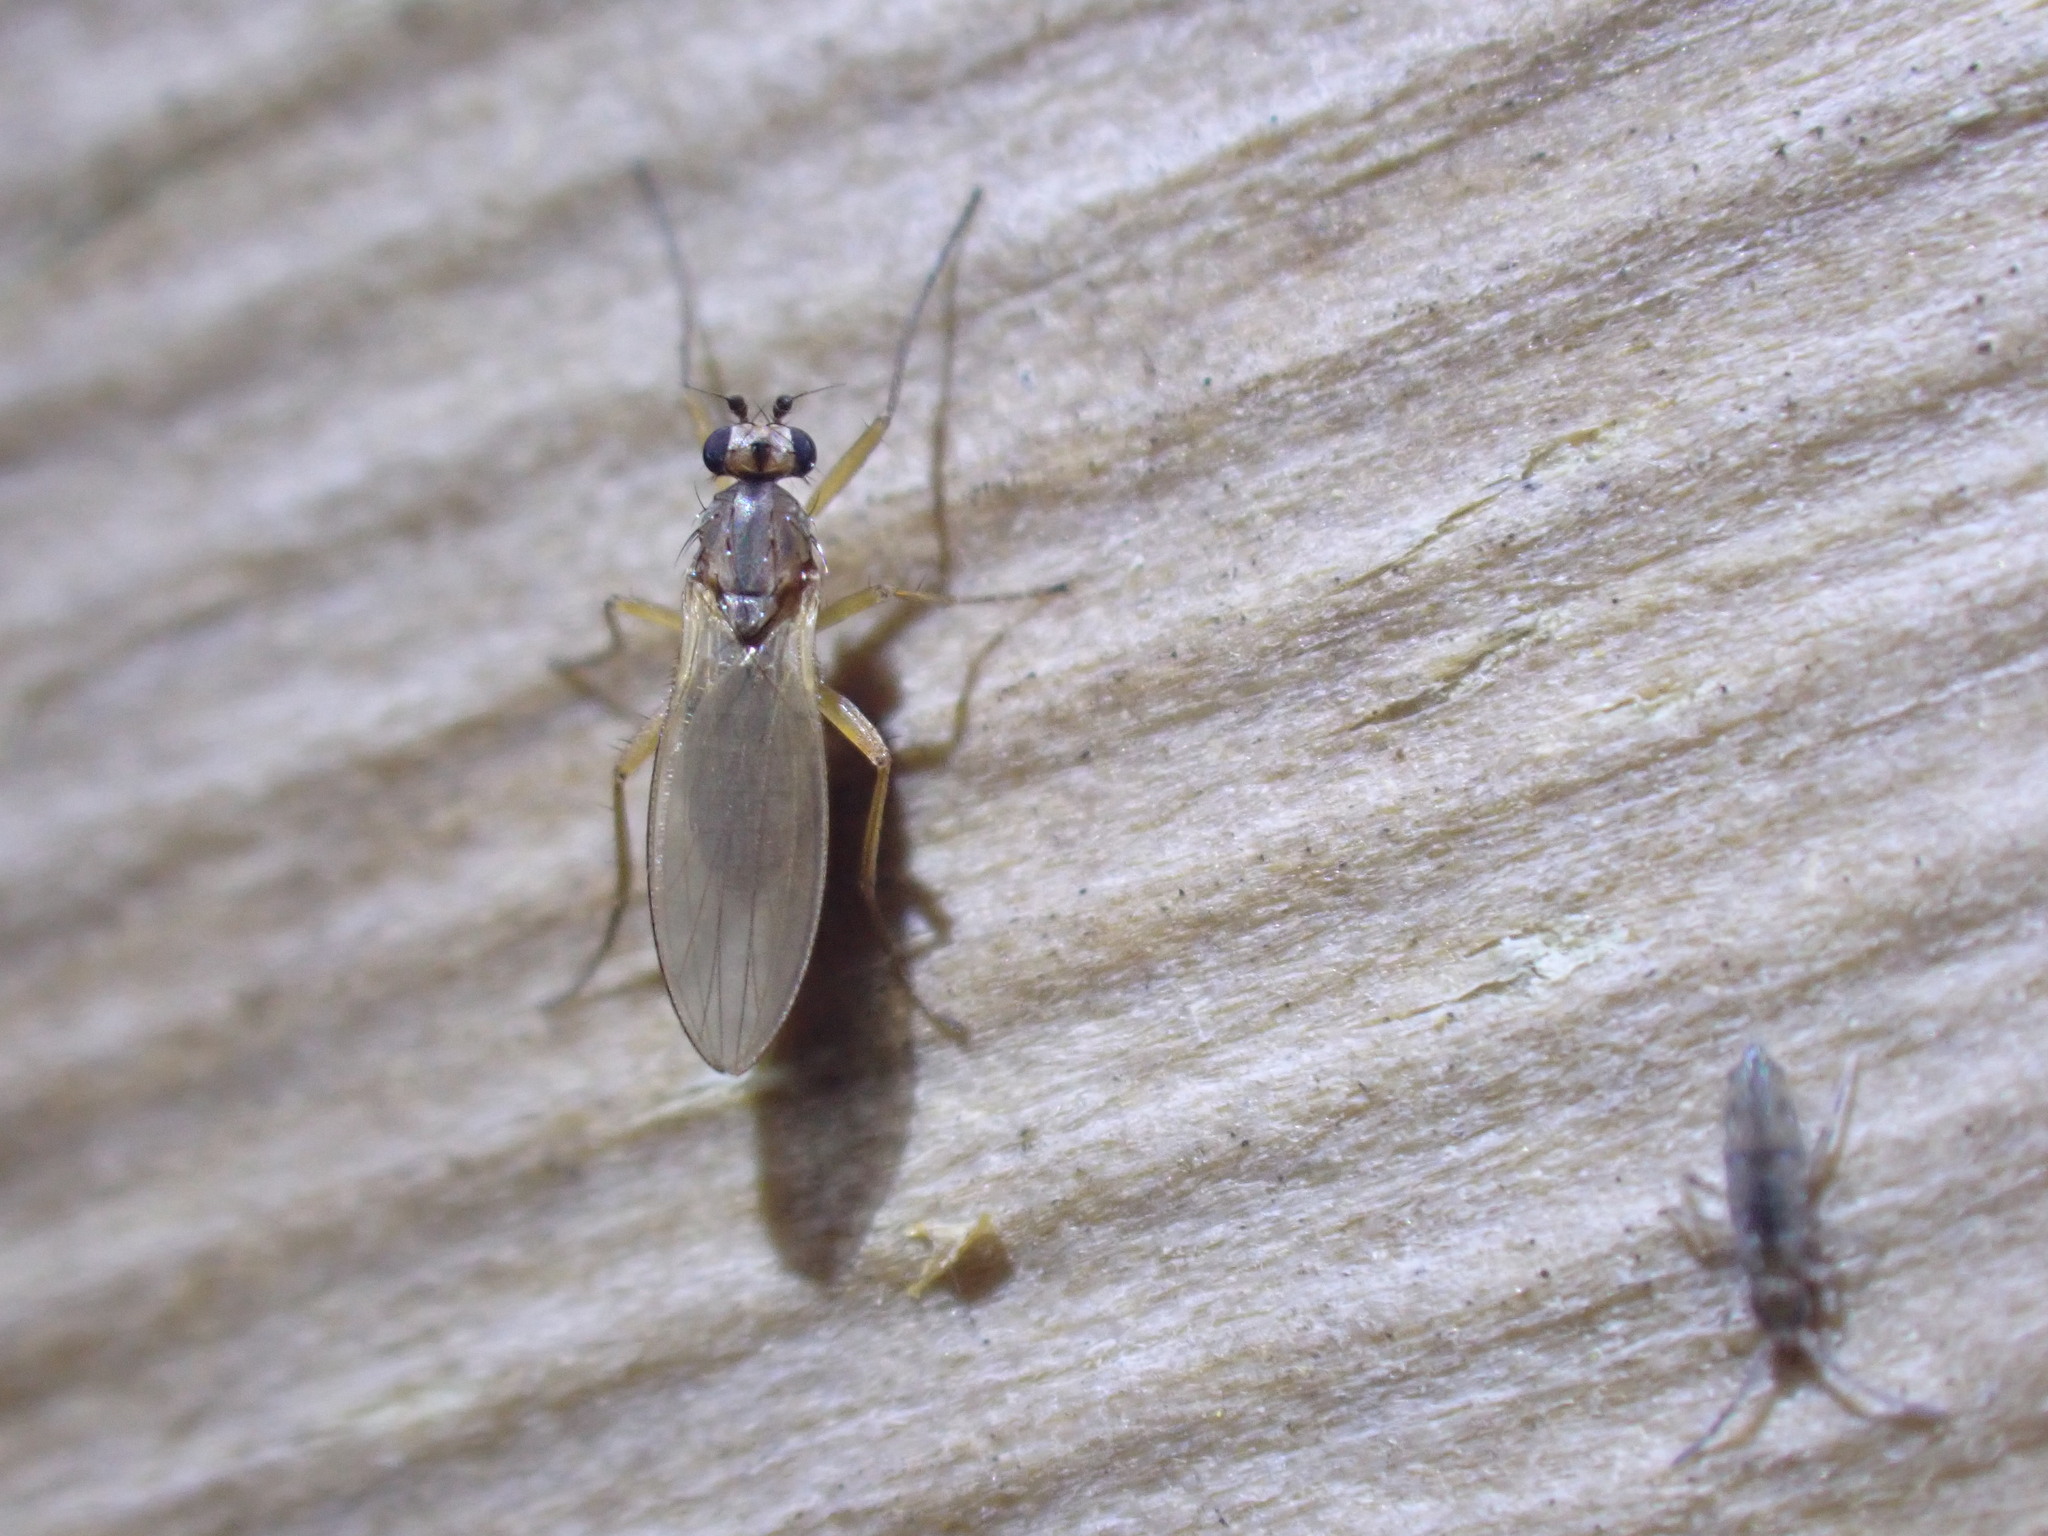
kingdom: Animalia
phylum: Arthropoda
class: Insecta
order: Diptera
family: Lonchopteridae
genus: Lonchoptera
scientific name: Lonchoptera bifurcata
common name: Spear-winged fly
